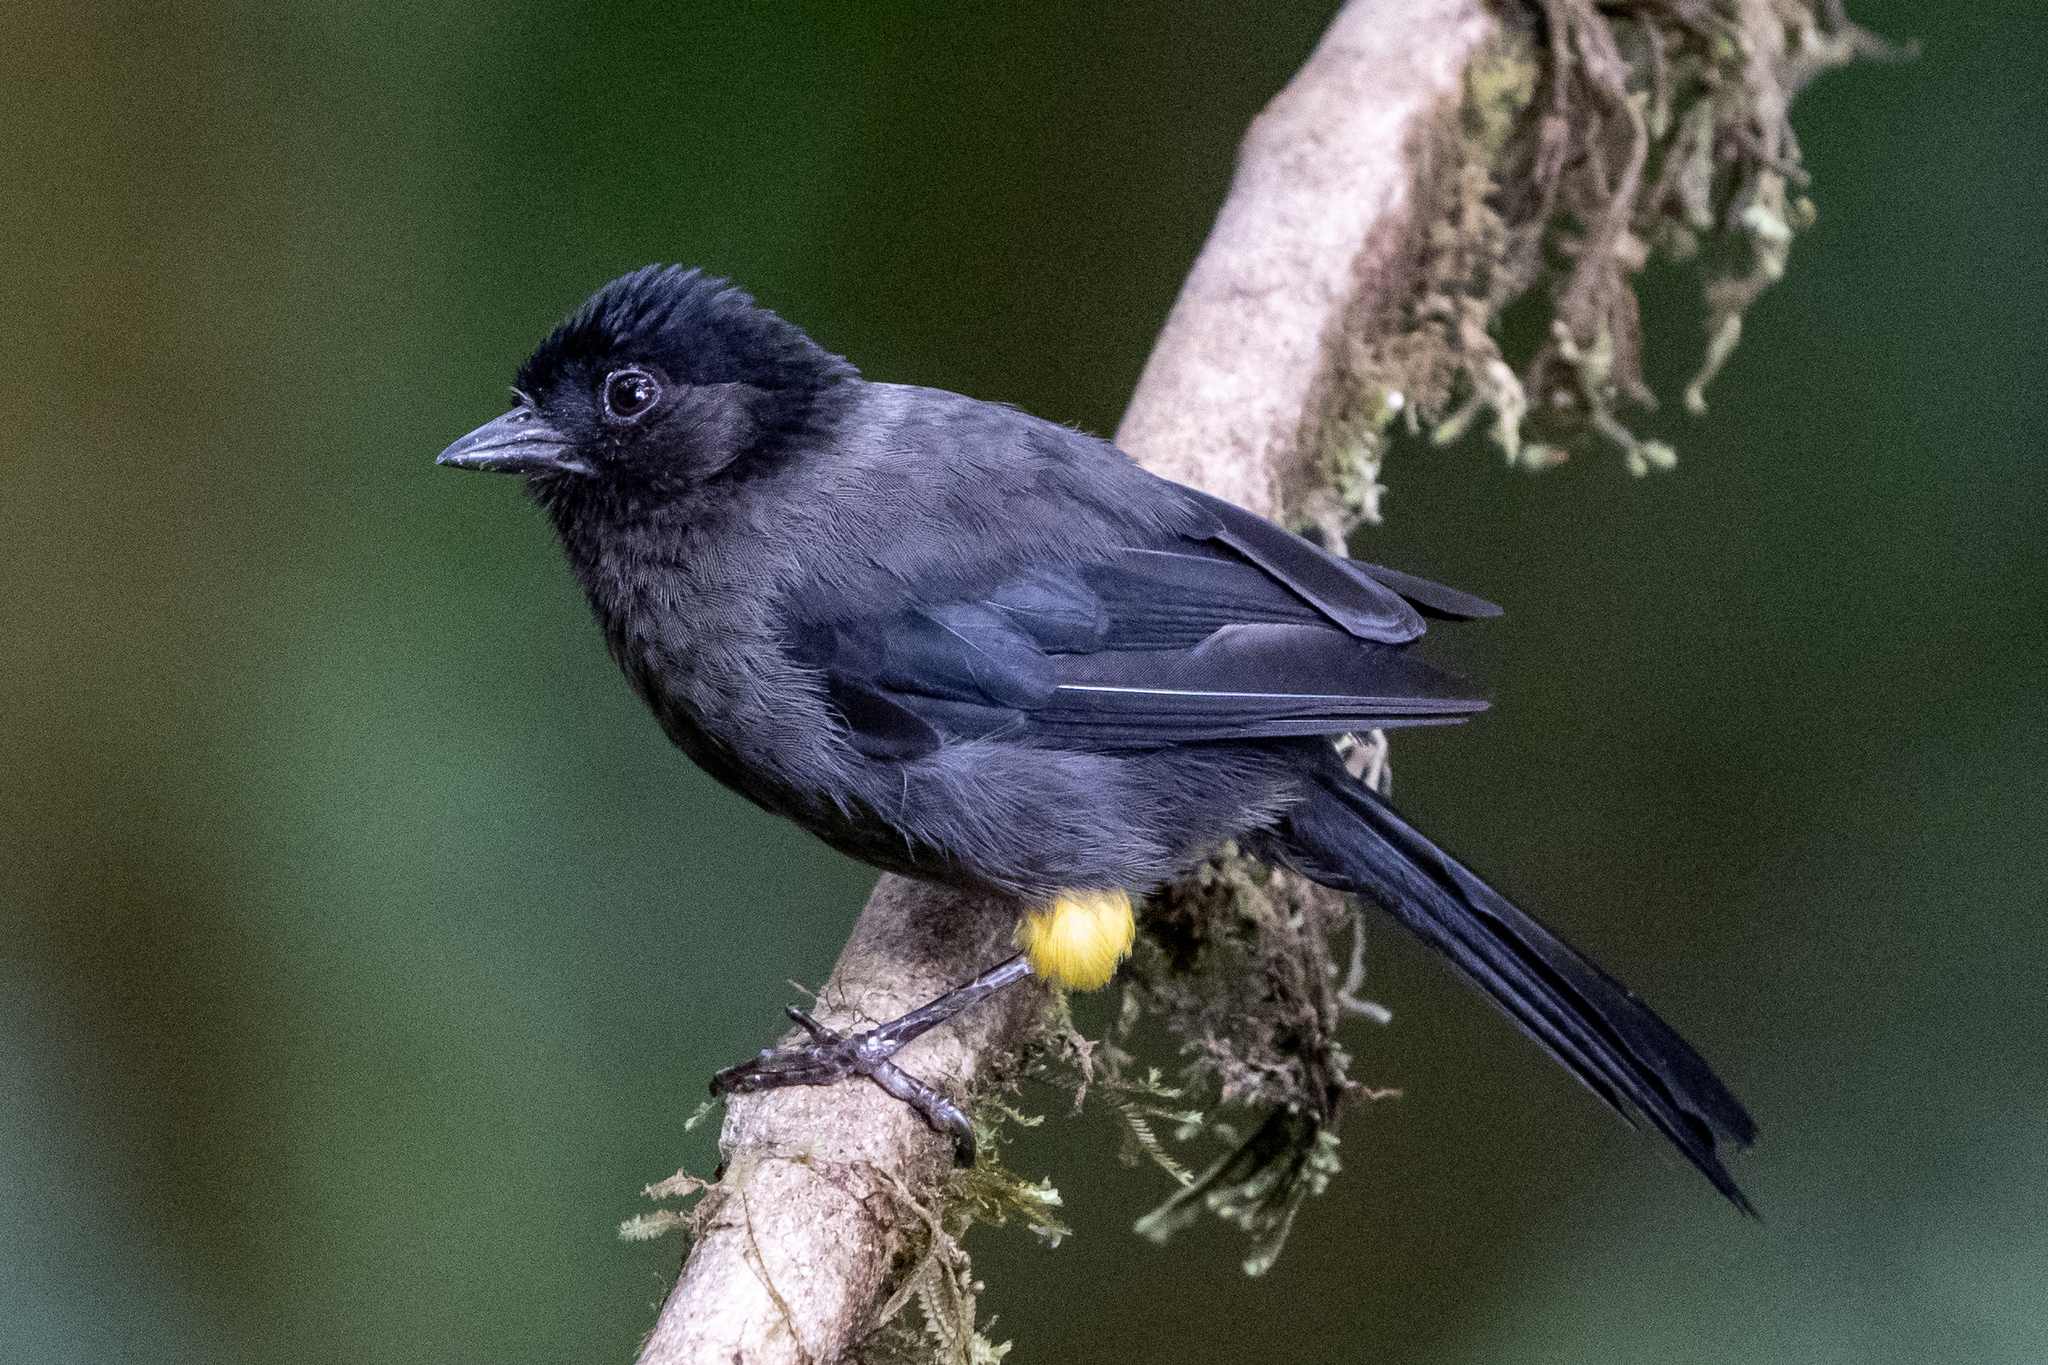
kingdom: Animalia
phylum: Chordata
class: Aves
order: Passeriformes
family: Passerellidae
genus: Atlapetes
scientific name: Atlapetes tibialis
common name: Yellow-thighed brushfinch
